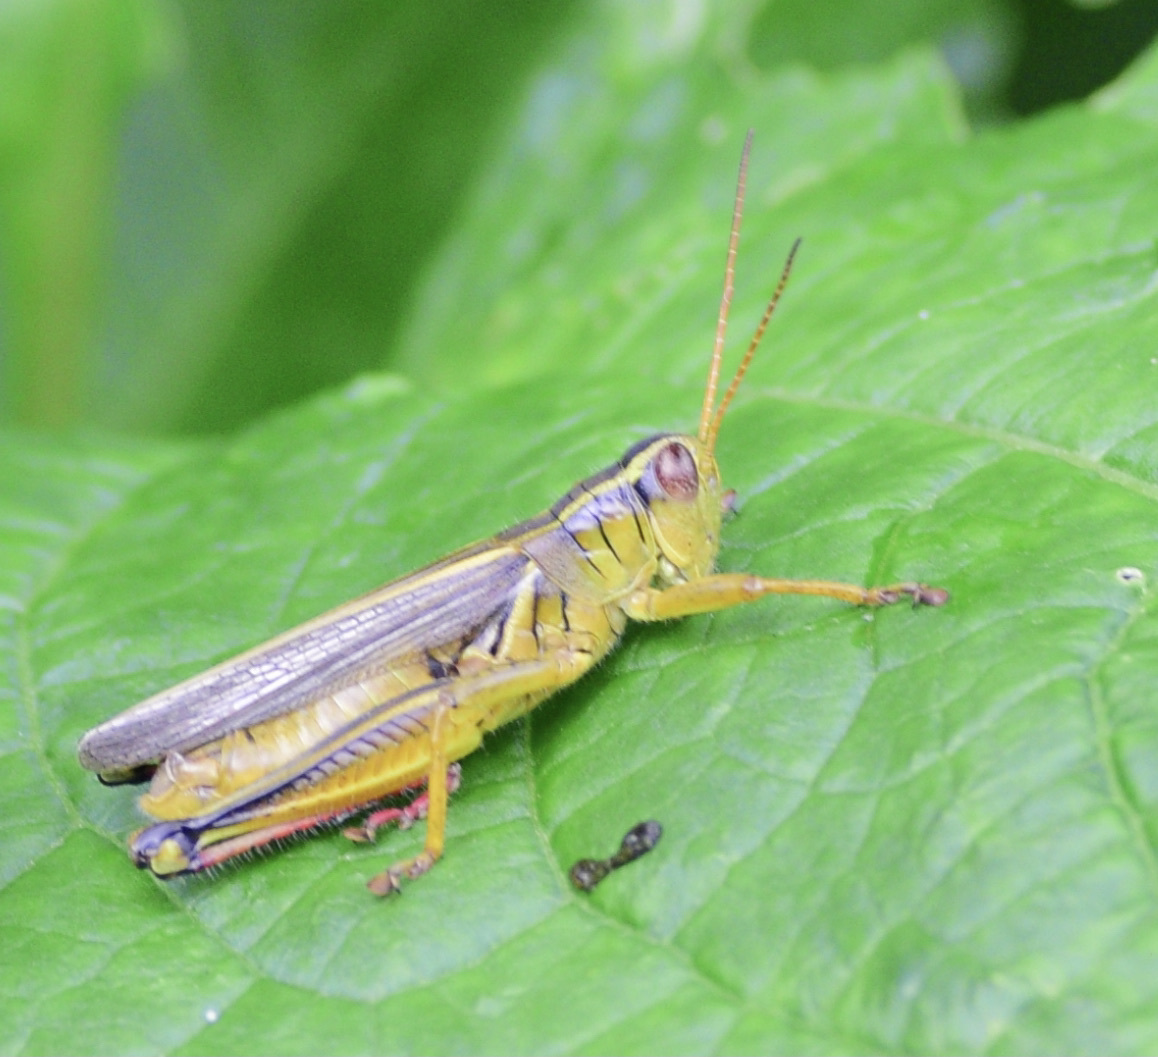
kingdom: Animalia
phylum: Arthropoda
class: Insecta
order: Orthoptera
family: Acrididae
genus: Melanoplus
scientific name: Melanoplus bivittatus
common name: Two-striped grasshopper
